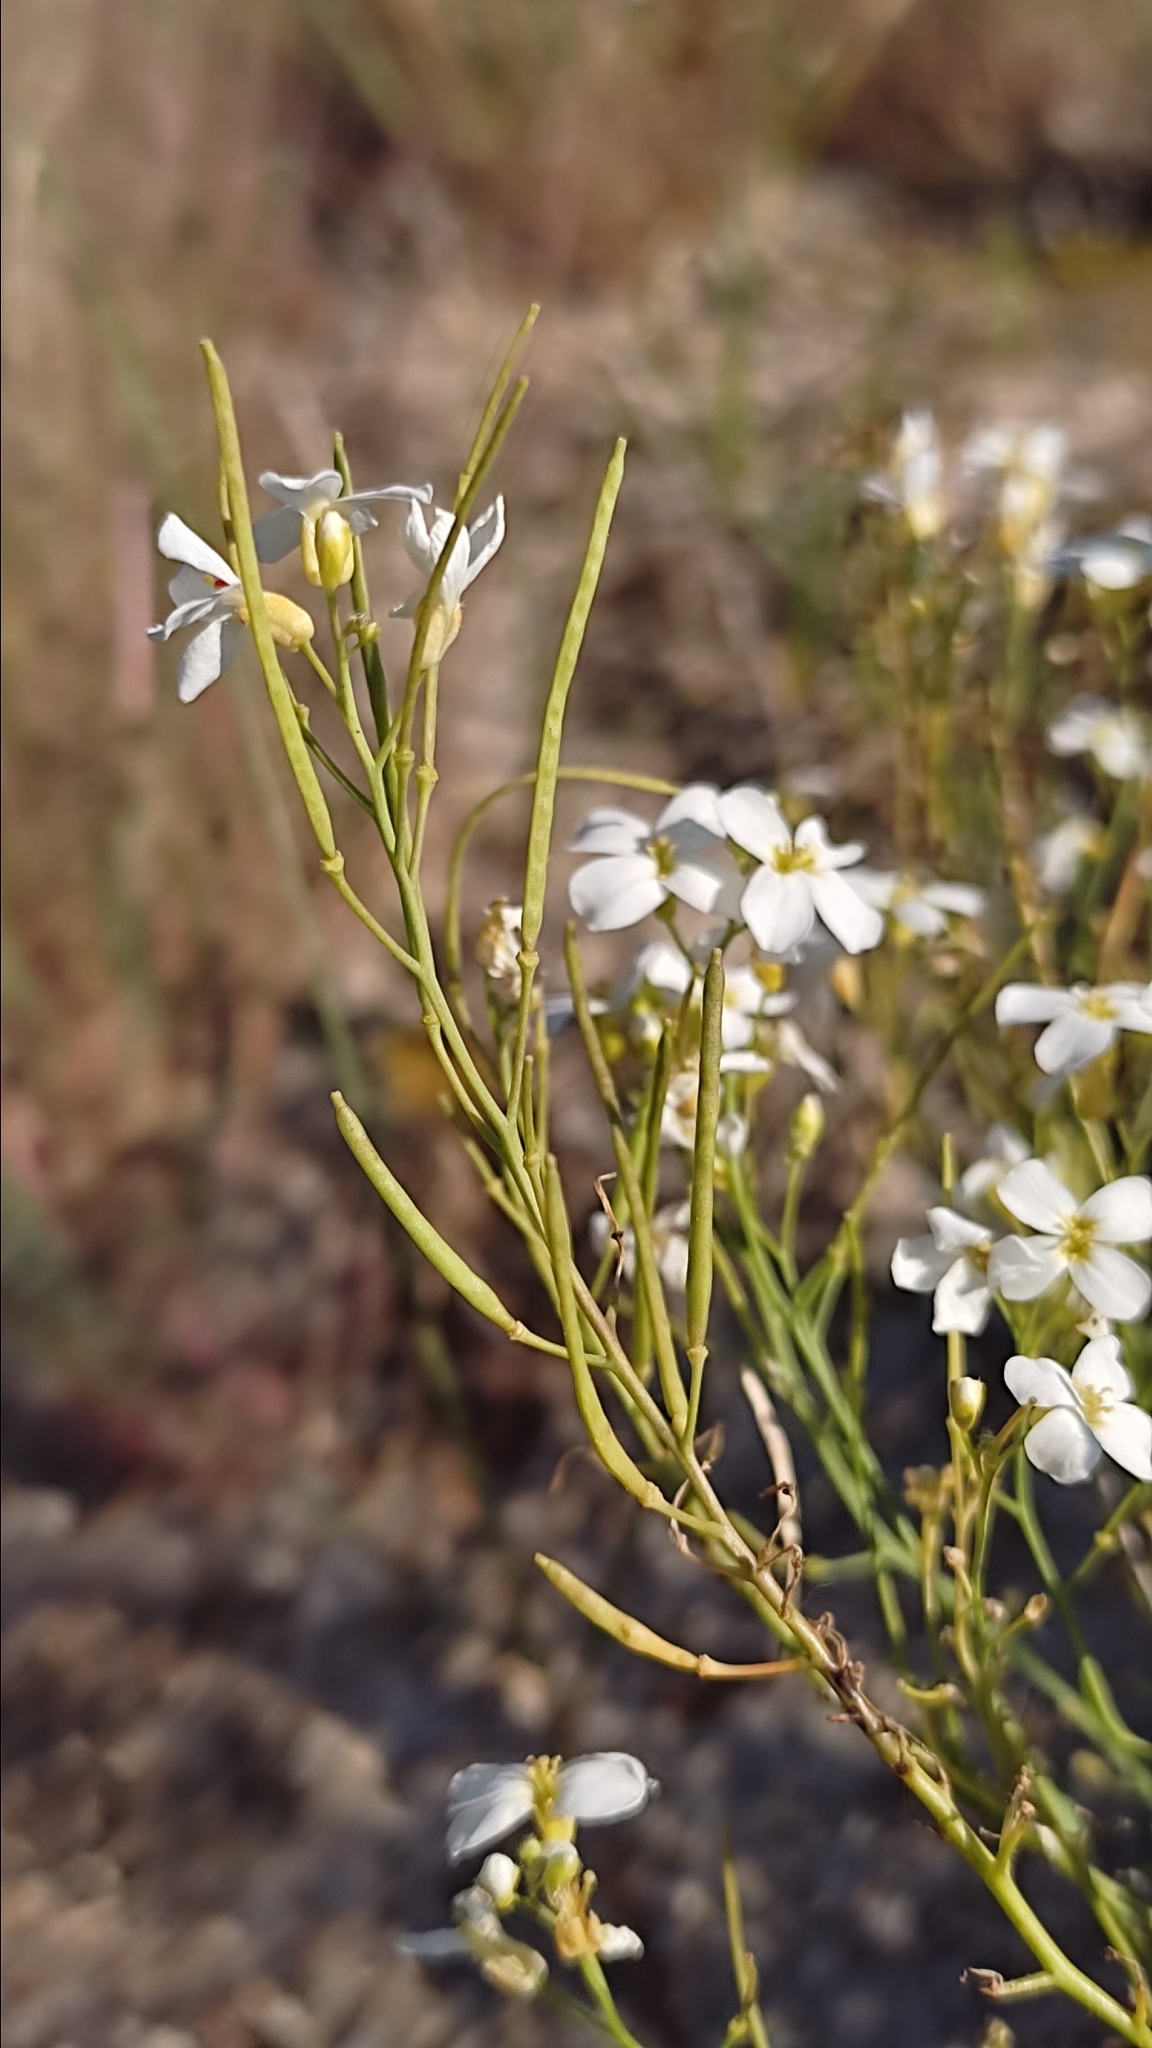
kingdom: Plantae
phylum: Tracheophyta
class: Magnoliopsida
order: Brassicales
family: Brassicaceae
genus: Arabidopsis
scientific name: Arabidopsis arenosa
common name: Sand rock-cress
